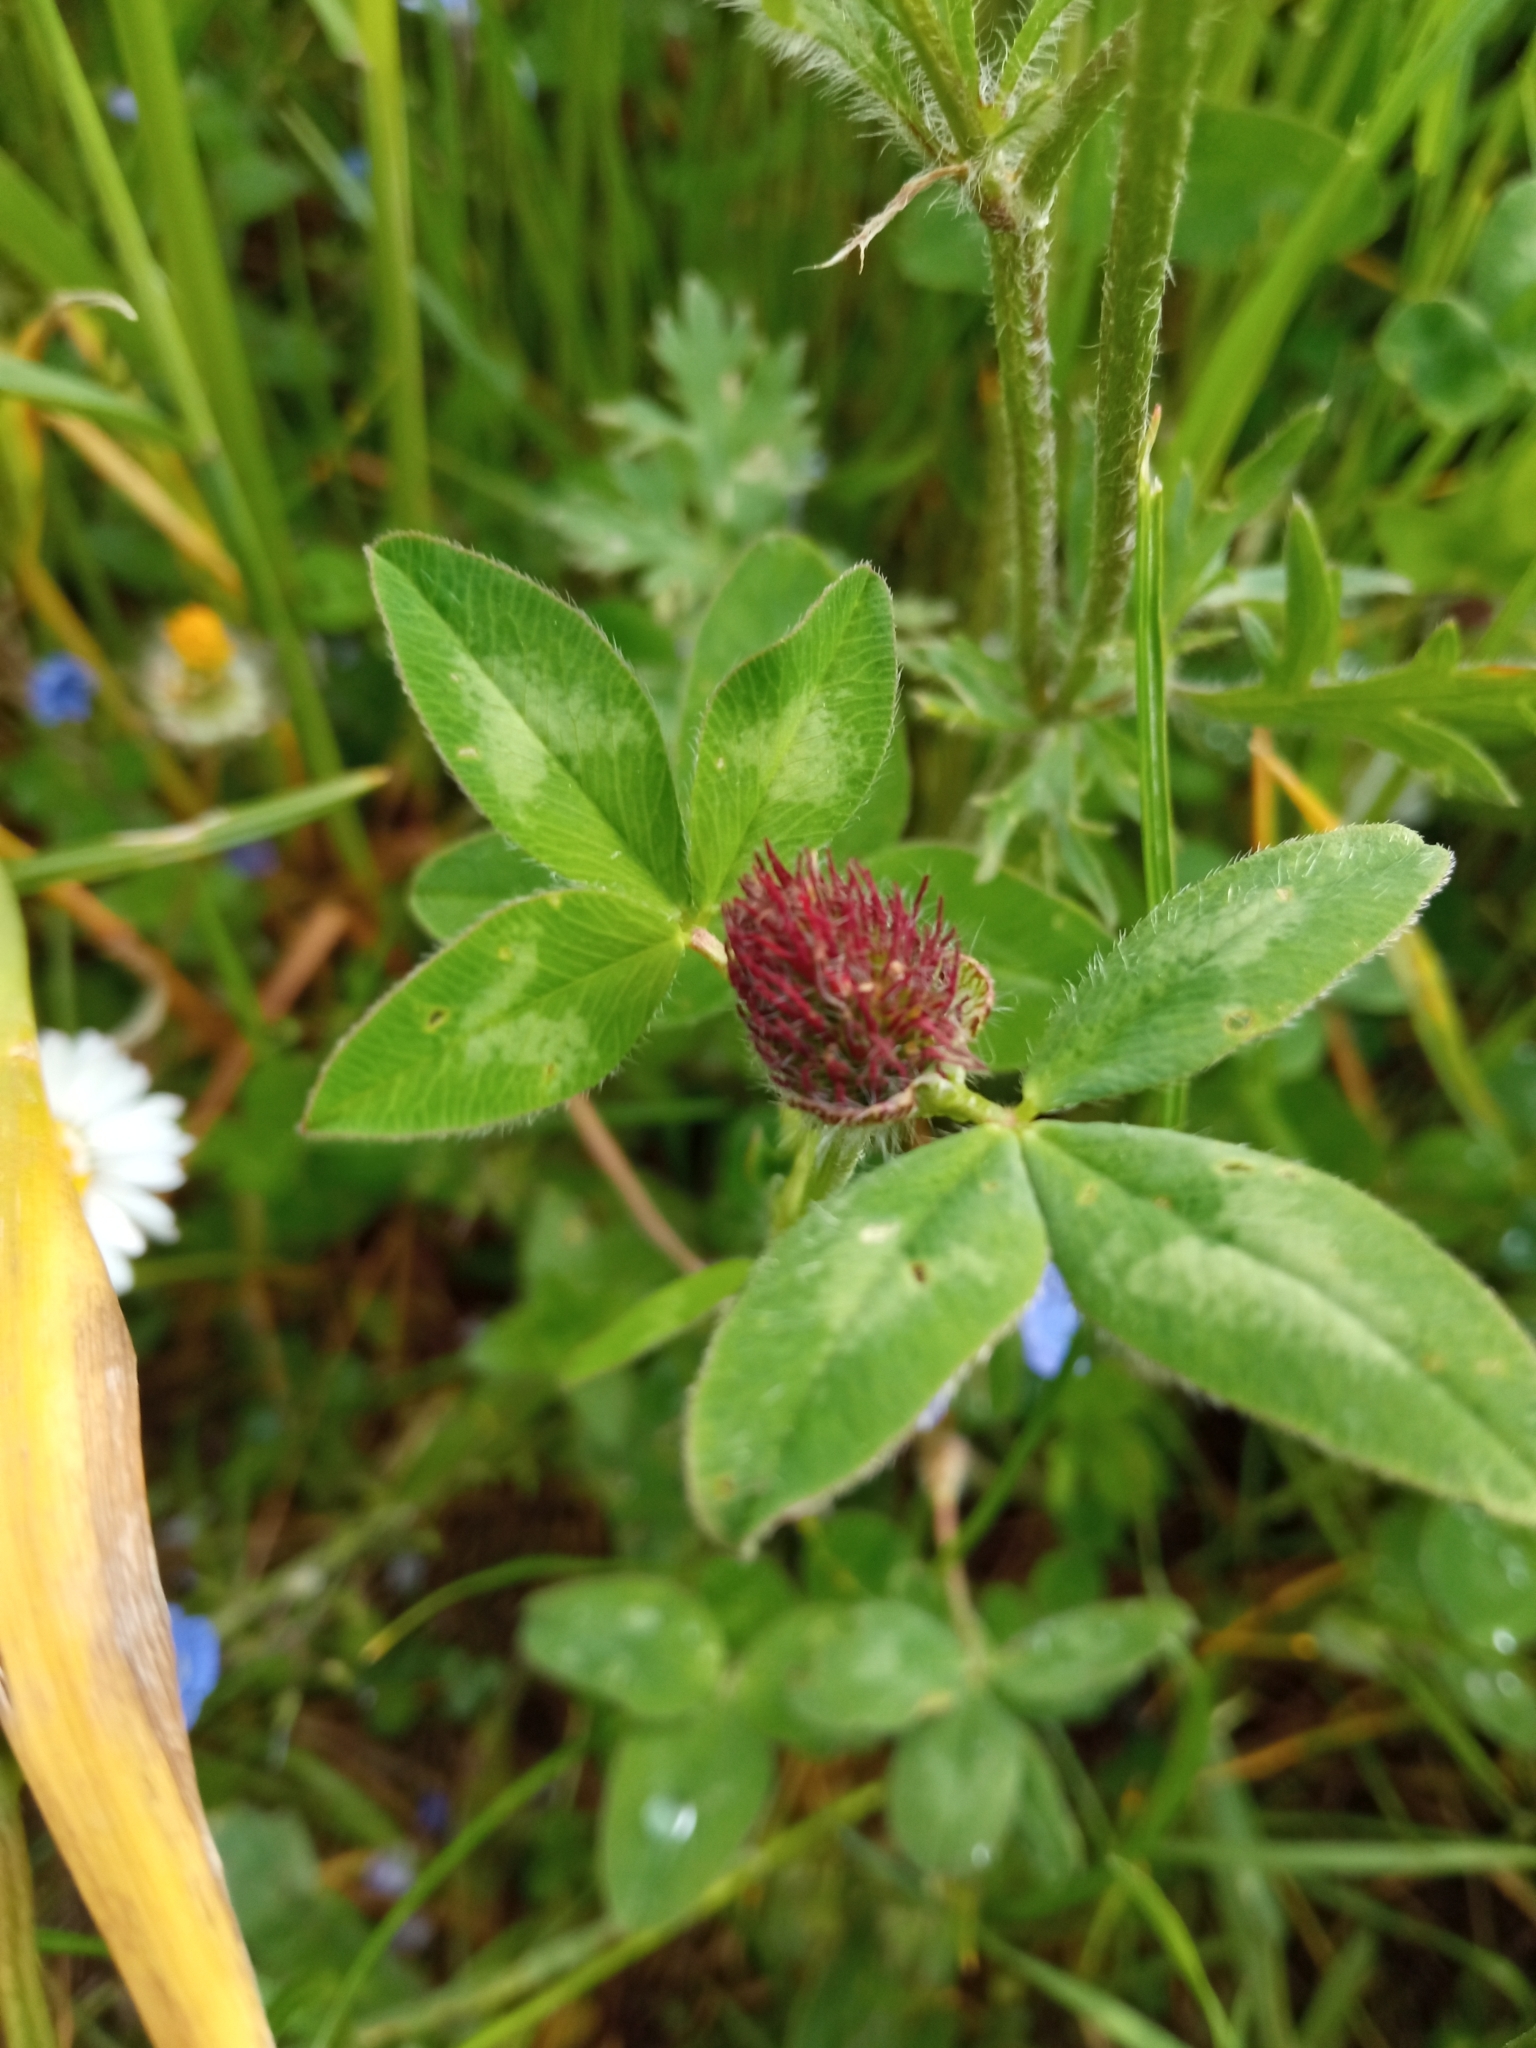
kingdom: Plantae
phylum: Tracheophyta
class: Magnoliopsida
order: Fabales
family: Fabaceae
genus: Trifolium
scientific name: Trifolium pratense
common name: Red clover
